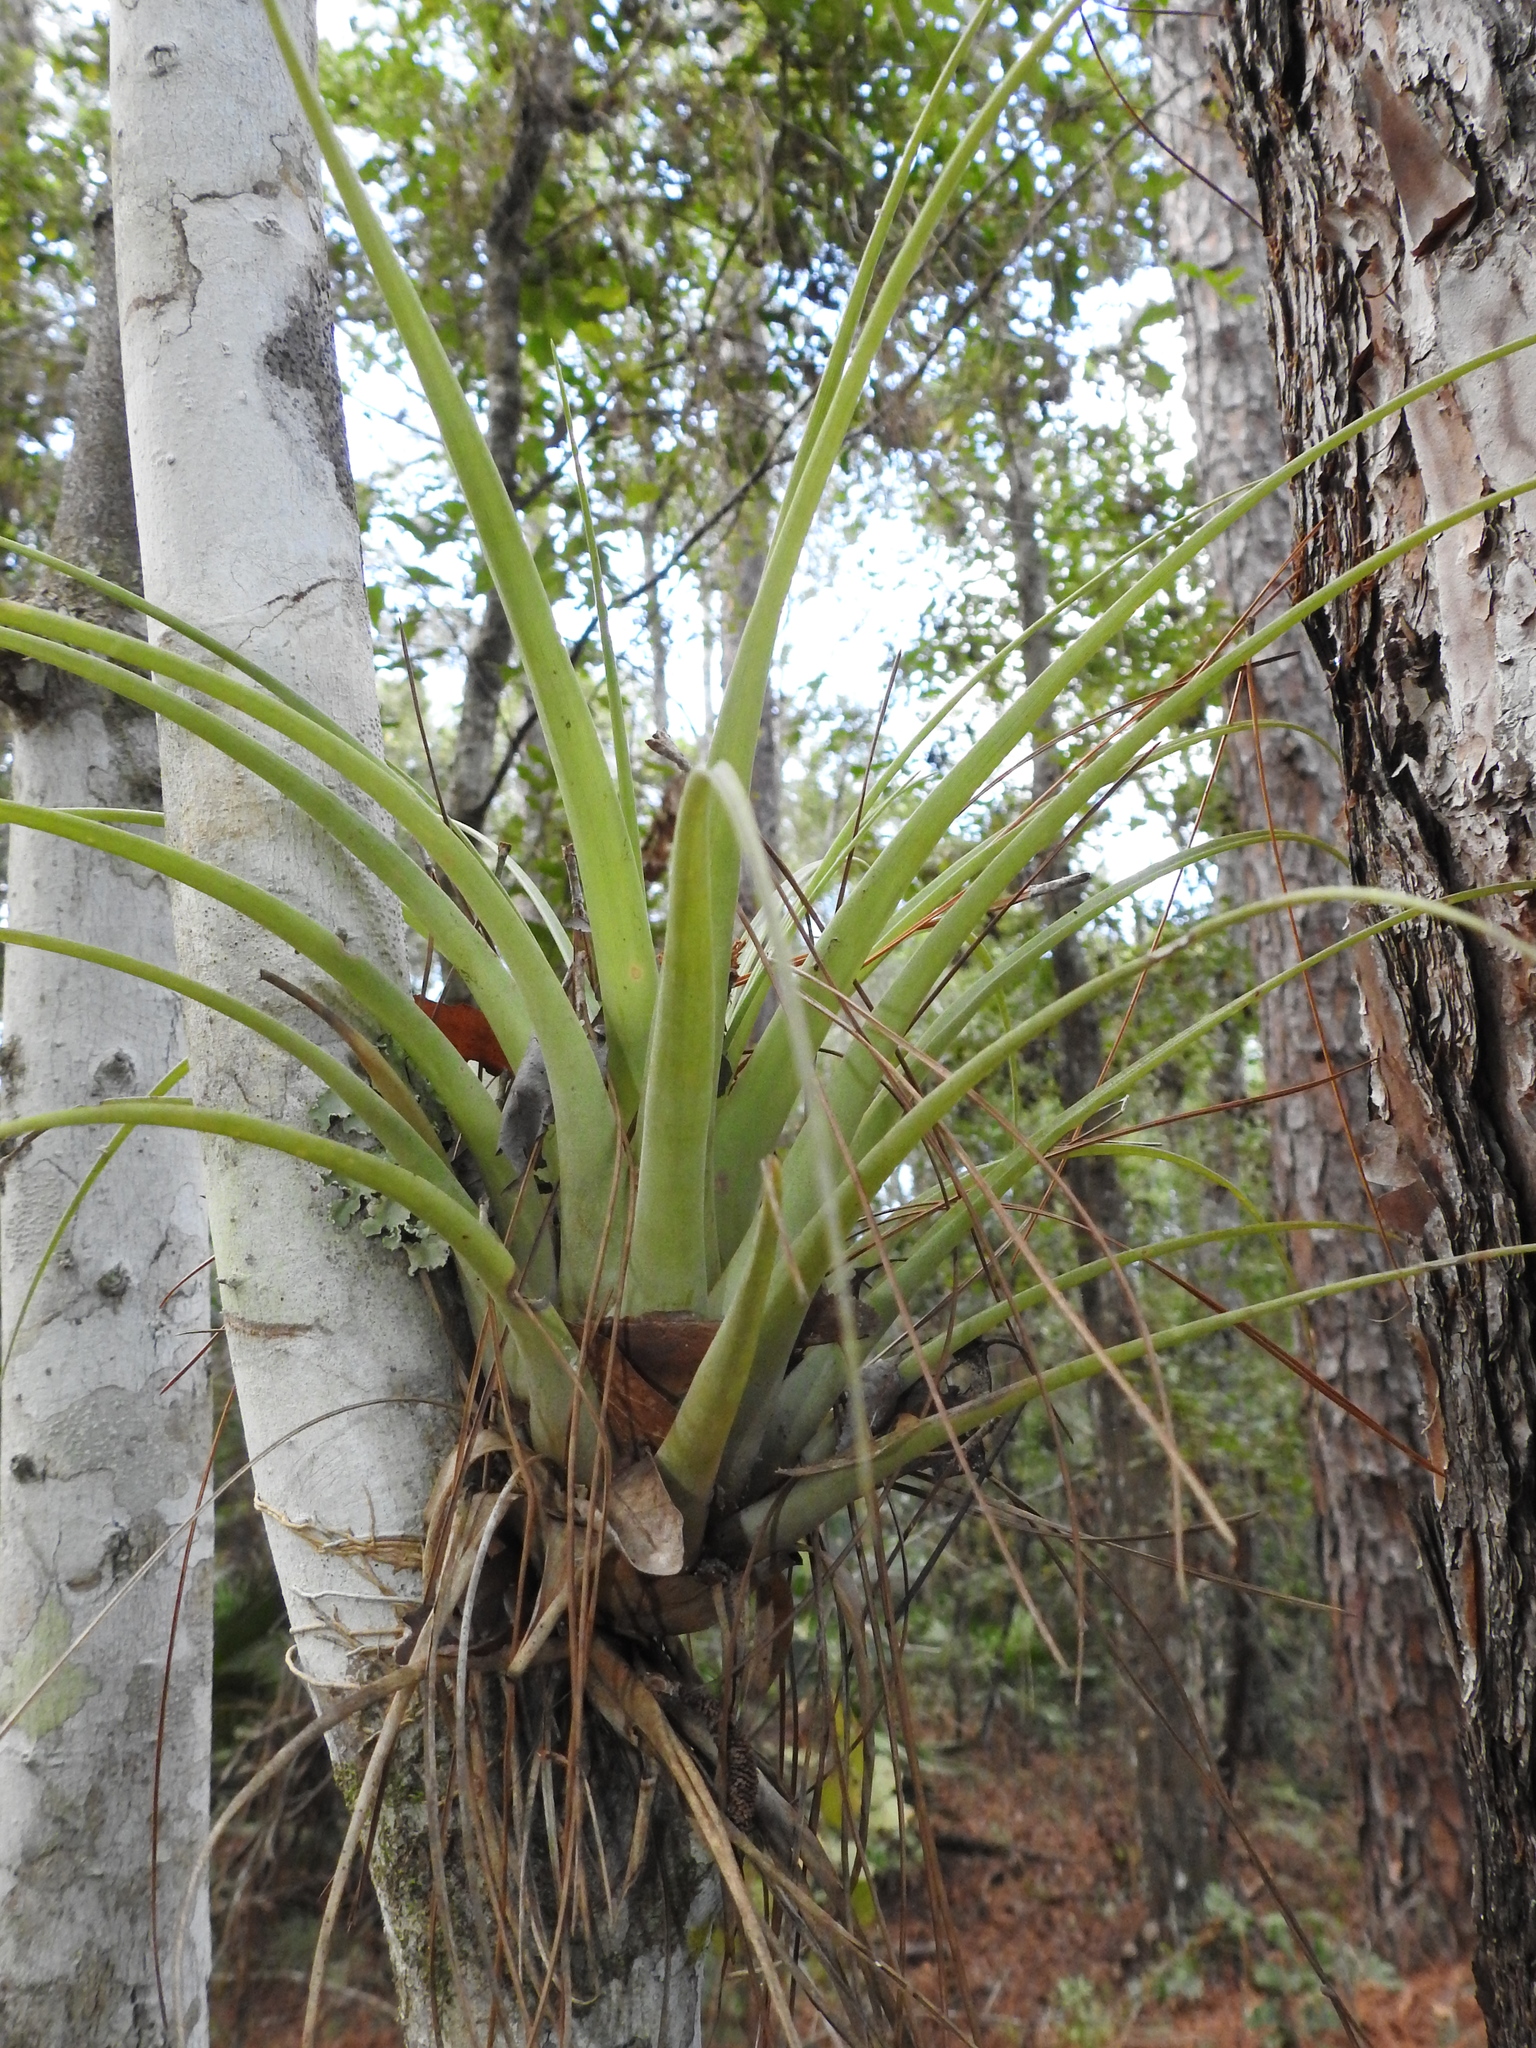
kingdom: Plantae
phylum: Tracheophyta
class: Liliopsida
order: Poales
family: Bromeliaceae
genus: Tillandsia
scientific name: Tillandsia utriculata
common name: Wild pine
